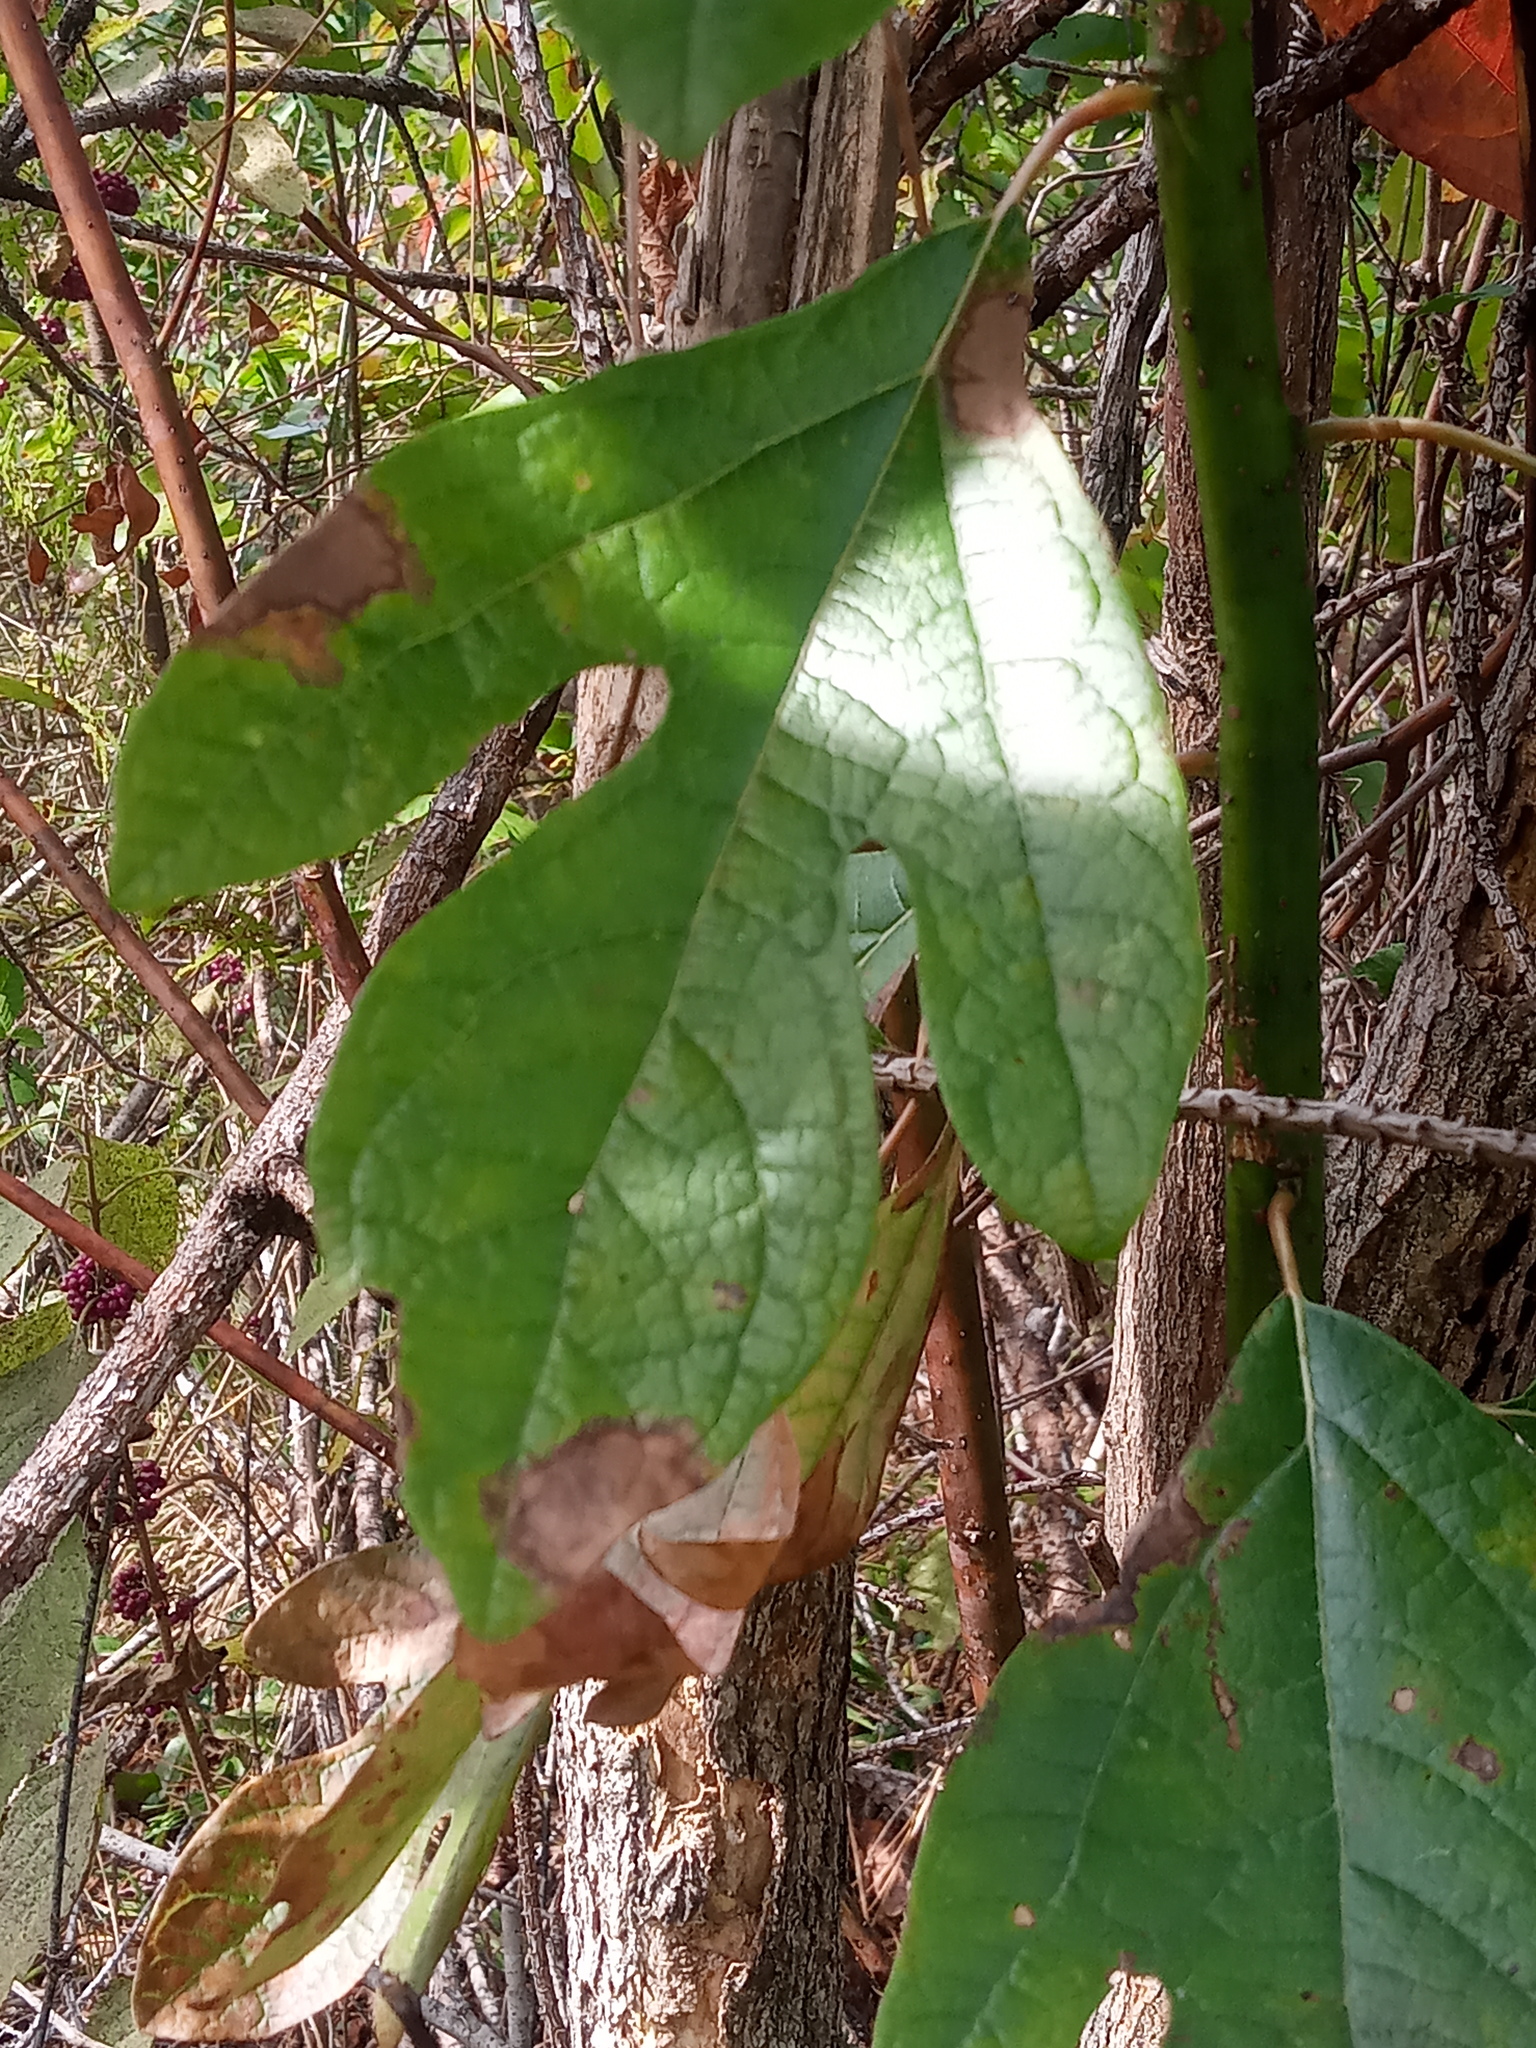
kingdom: Plantae
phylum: Tracheophyta
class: Magnoliopsida
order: Laurales
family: Lauraceae
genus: Sassafras
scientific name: Sassafras albidum
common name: Sassafras
